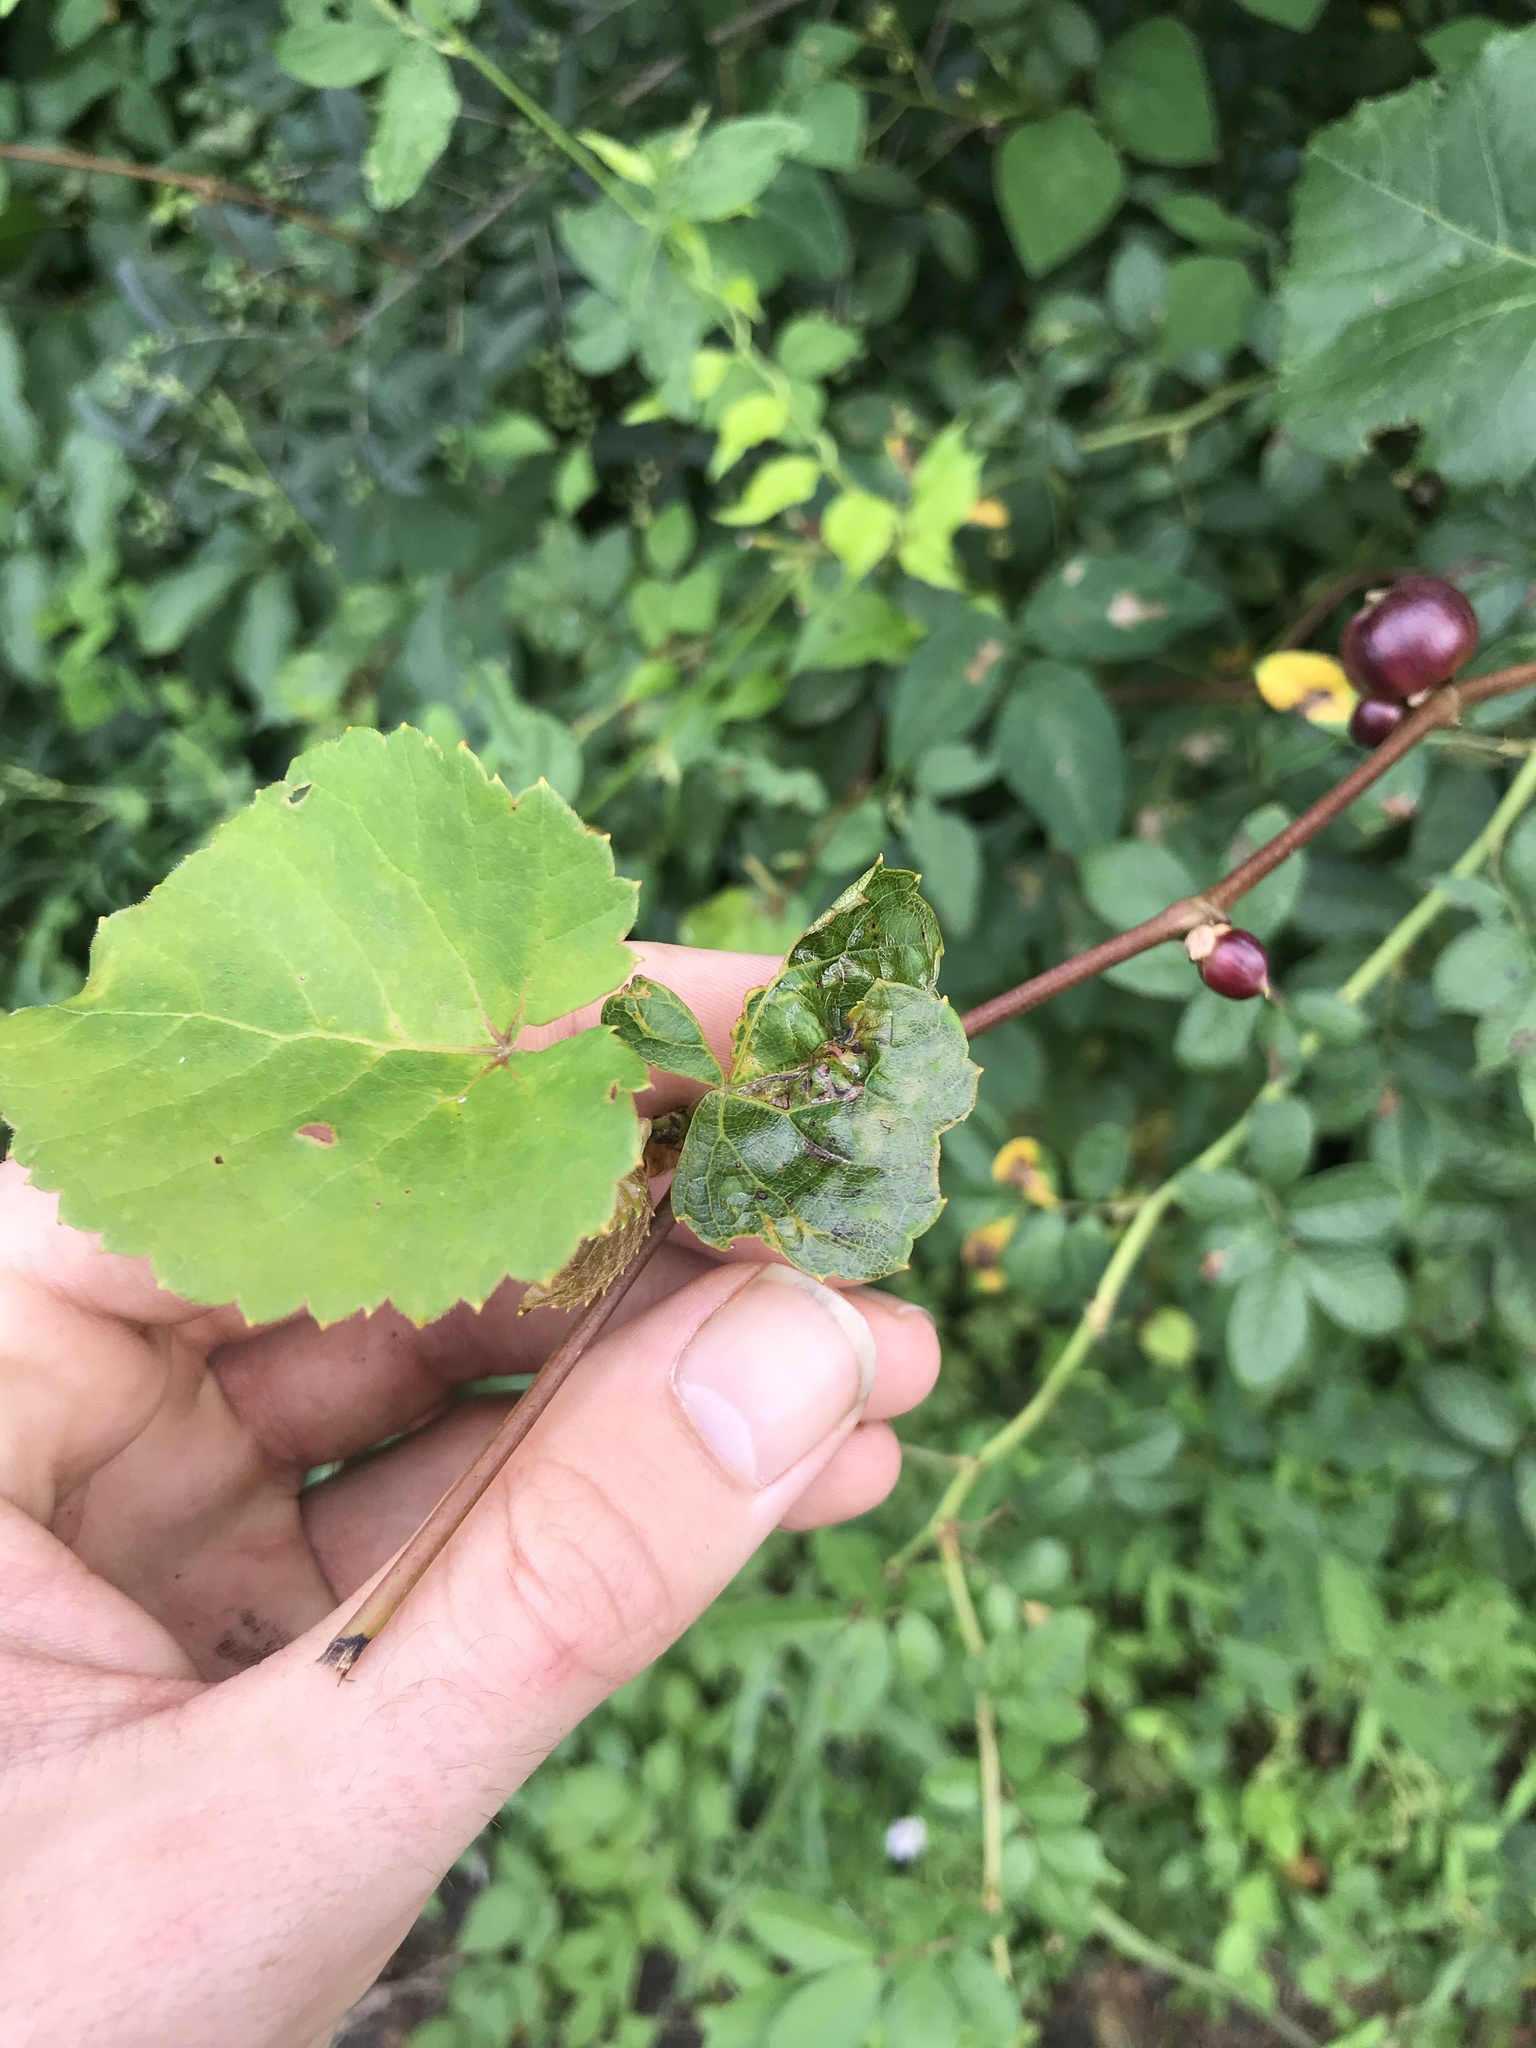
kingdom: Animalia
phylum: Arthropoda
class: Insecta
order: Diptera
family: Cecidomyiidae
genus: Ampelomyia
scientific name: Ampelomyia vitispomum
